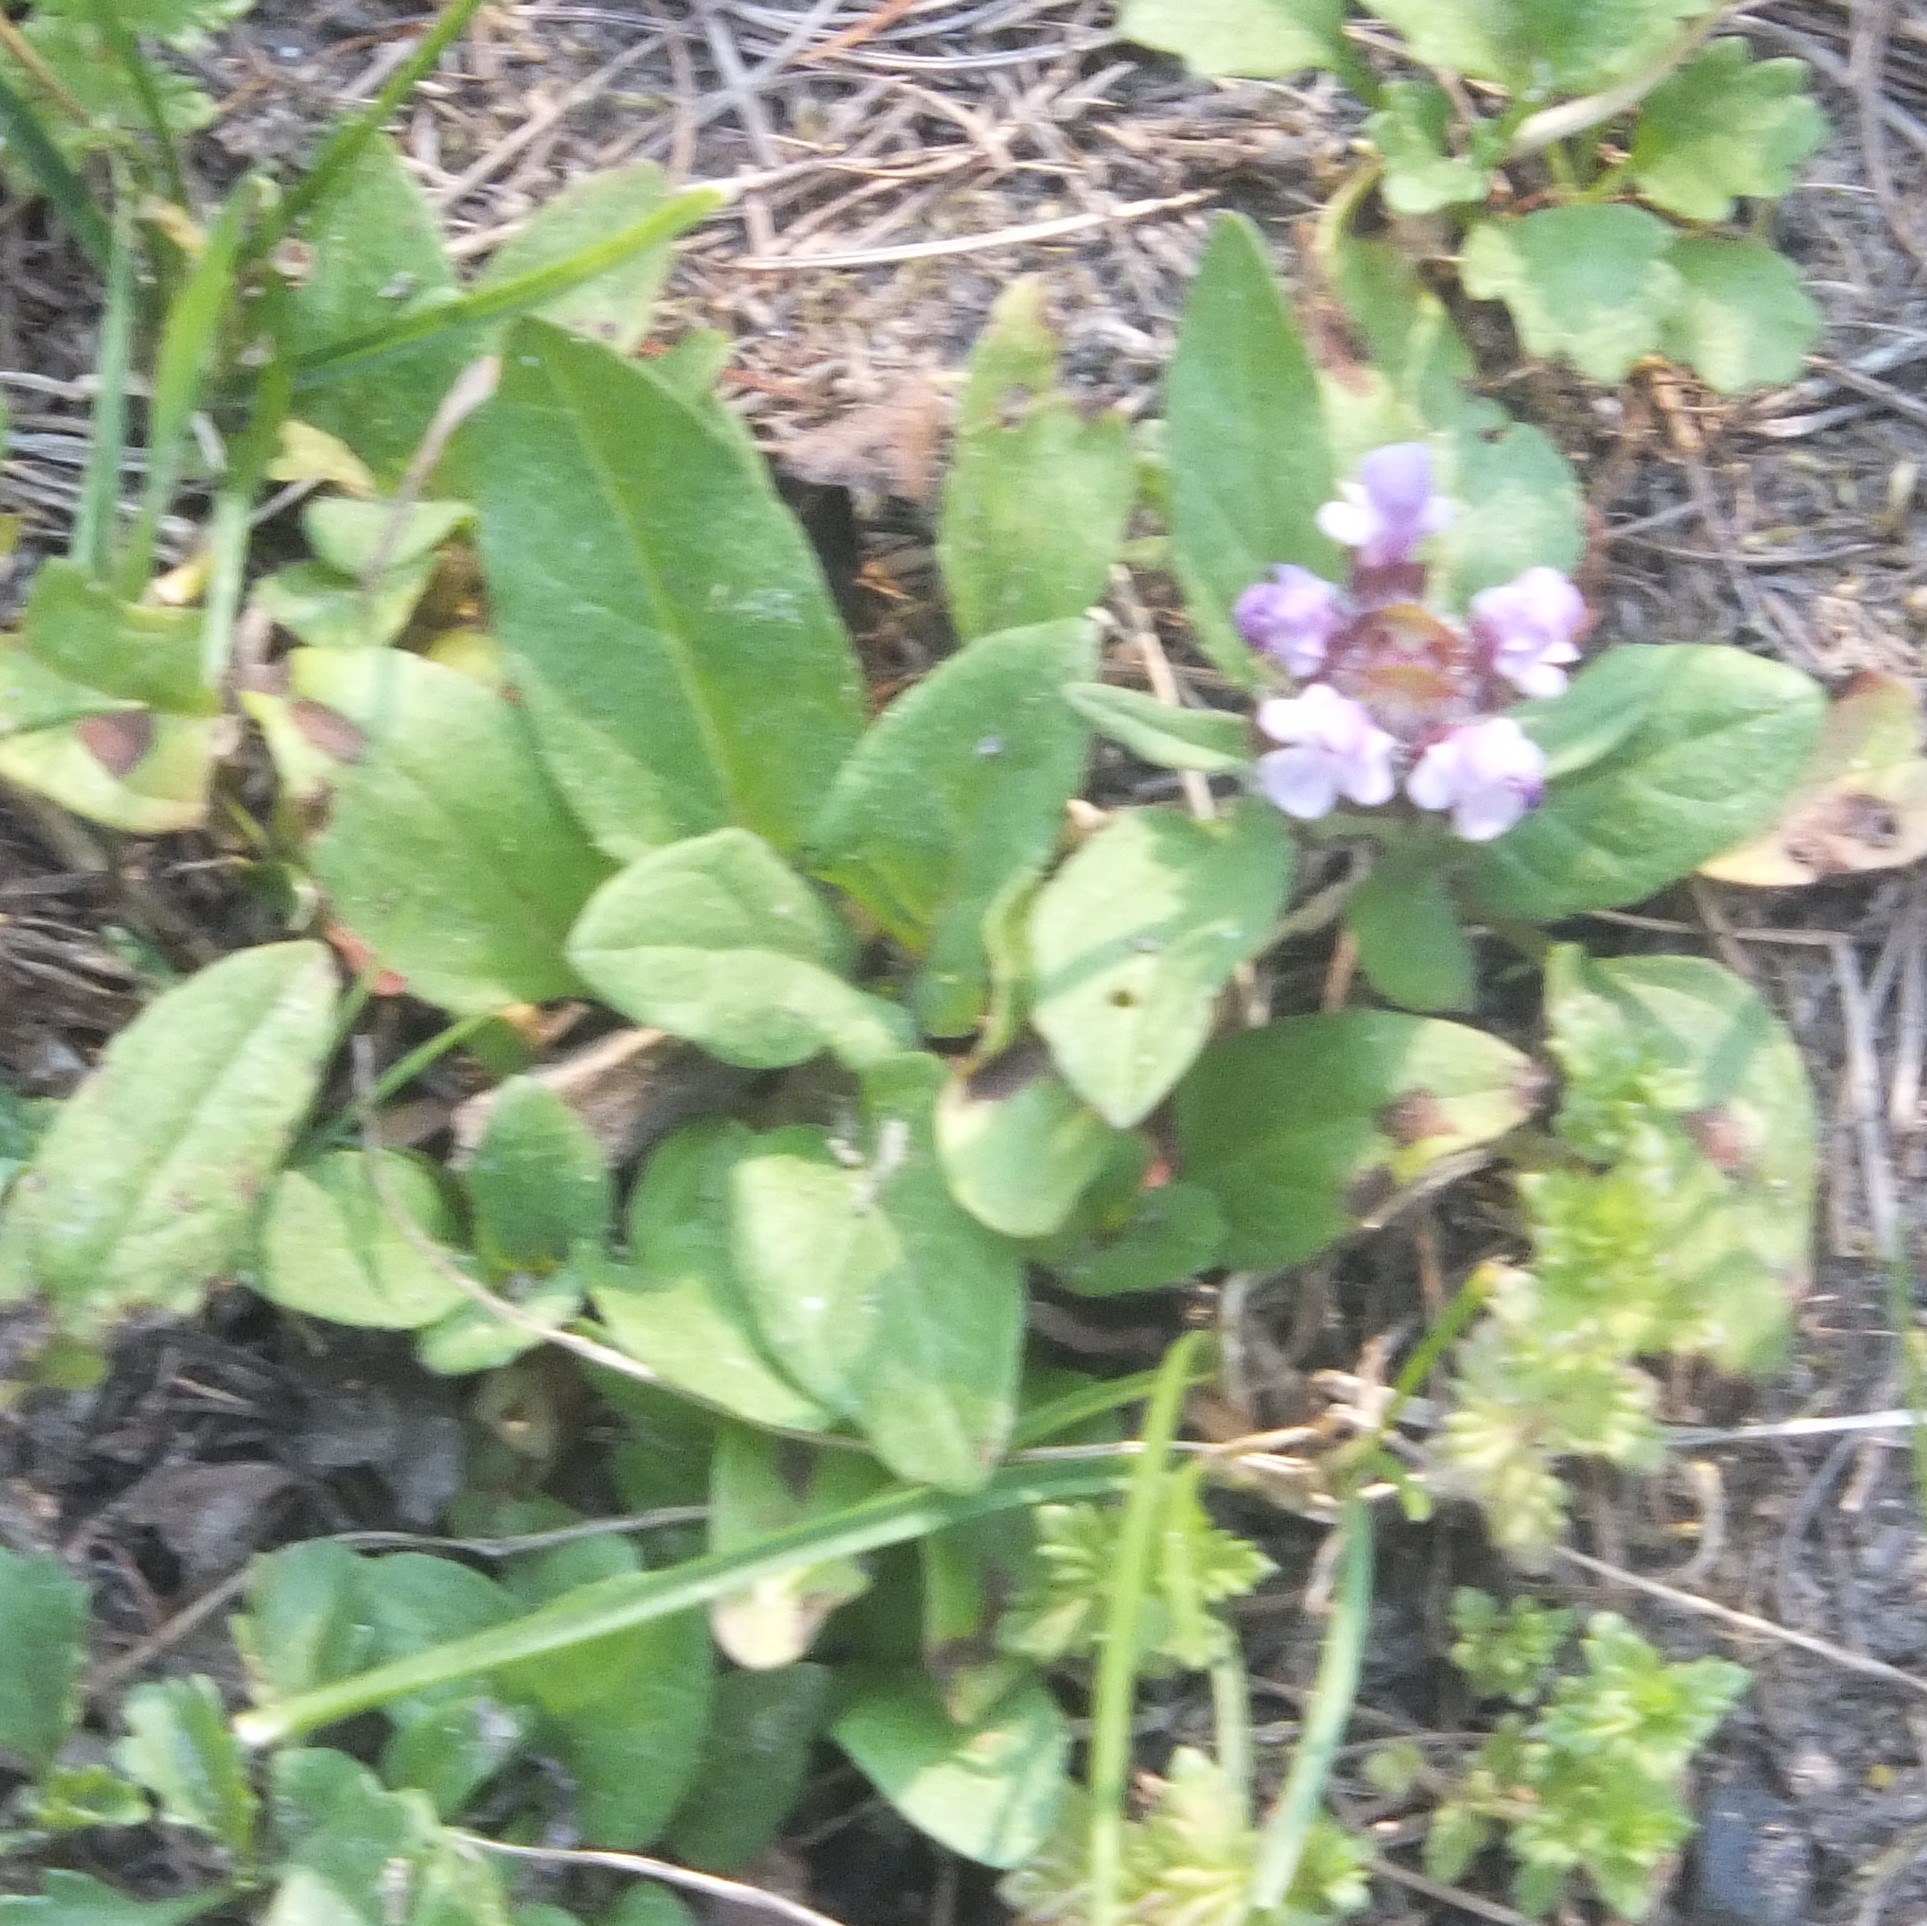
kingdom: Plantae
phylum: Tracheophyta
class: Magnoliopsida
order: Lamiales
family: Lamiaceae
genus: Prunella
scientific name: Prunella vulgaris
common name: Heal-all
